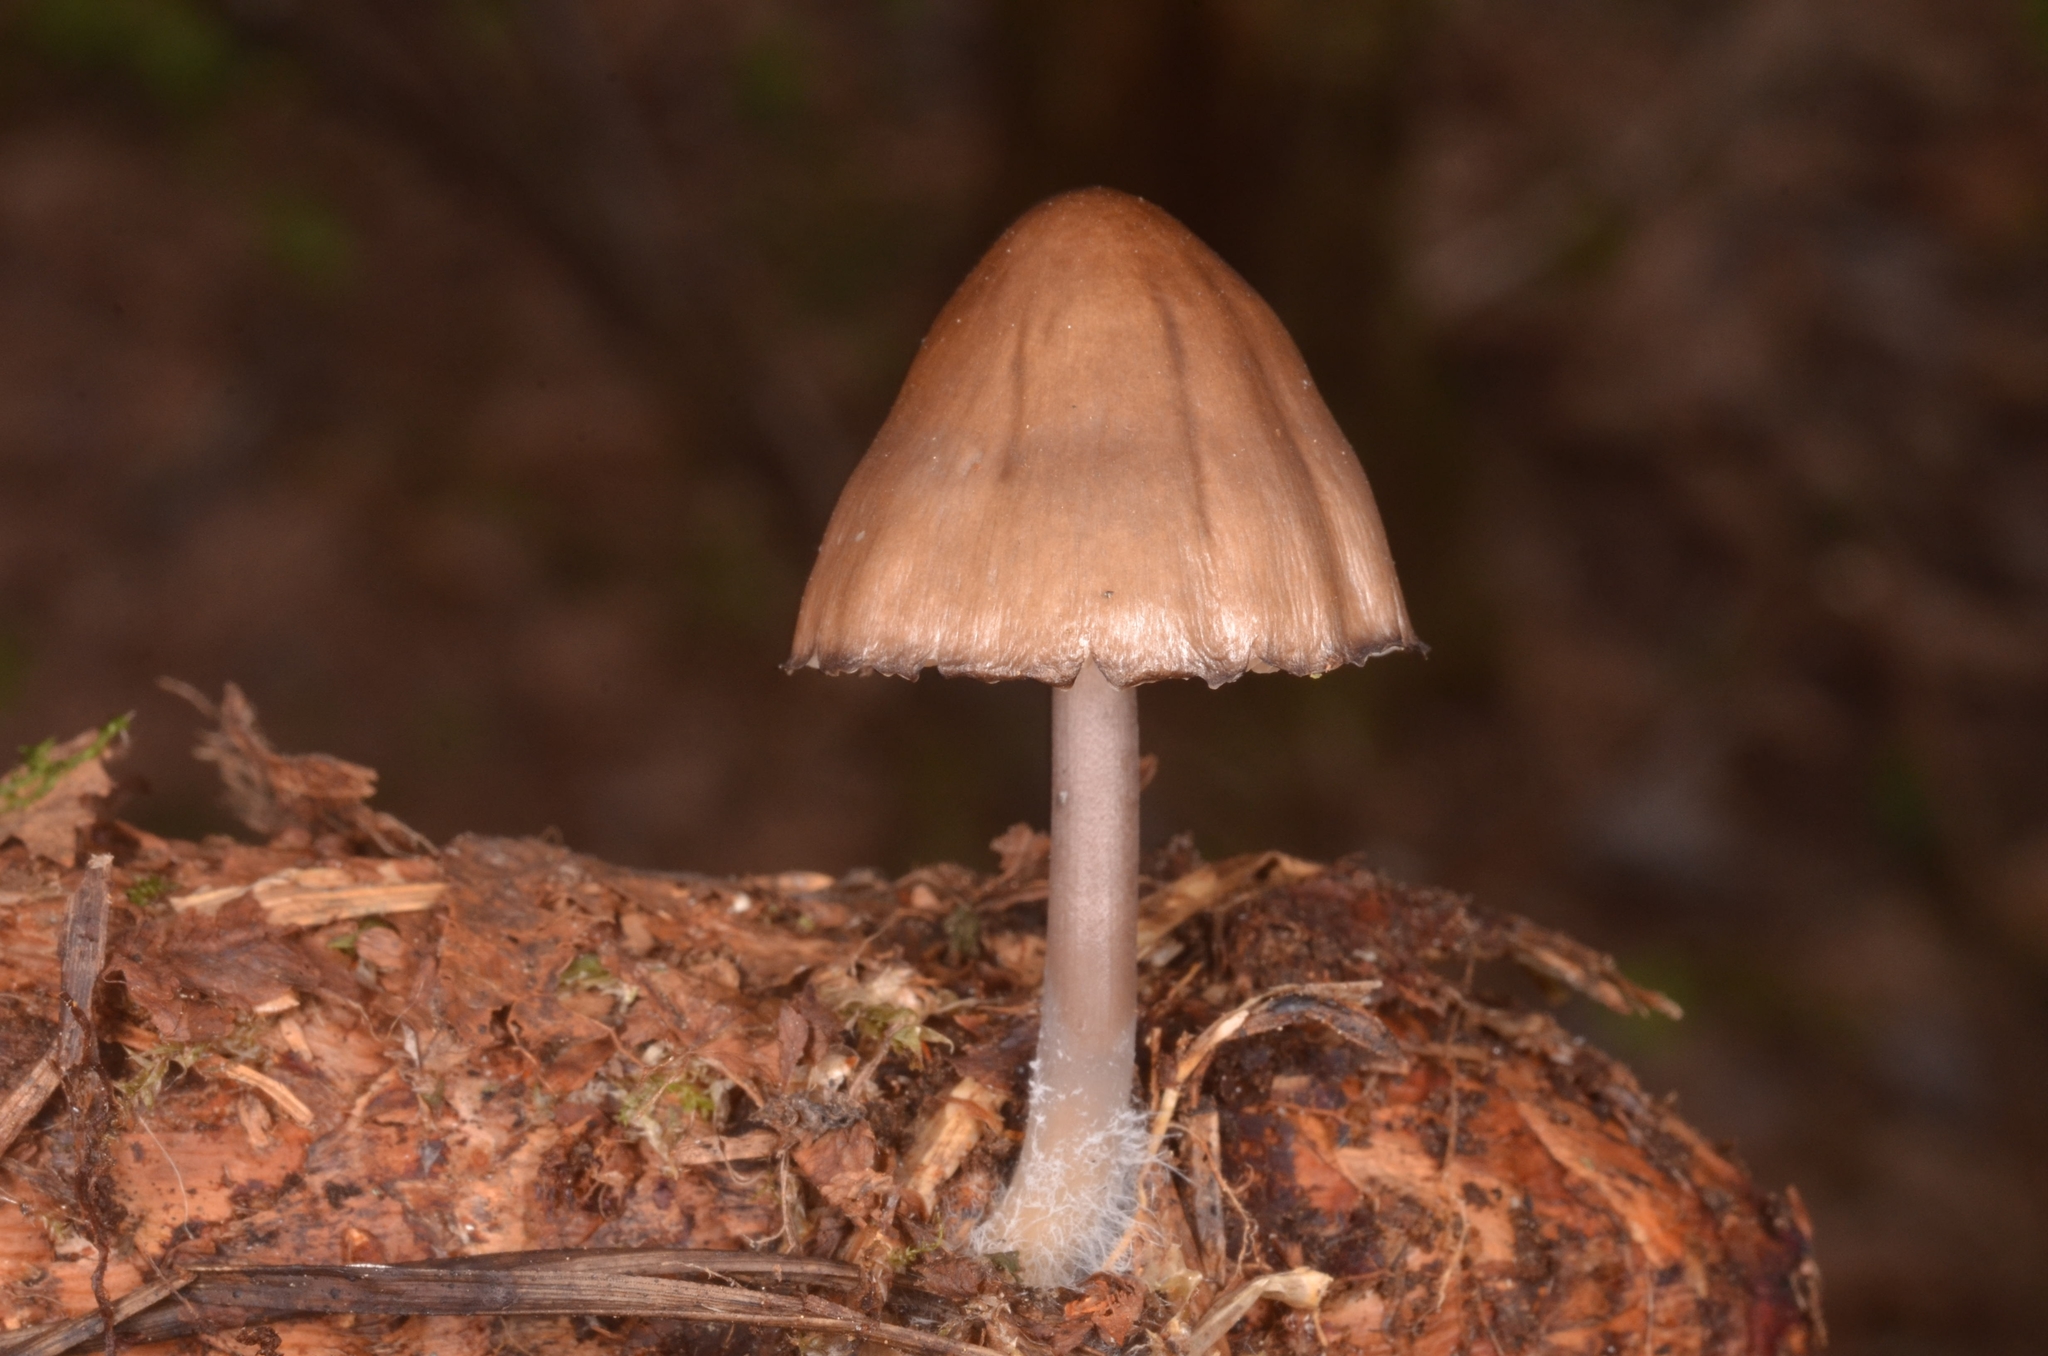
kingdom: Fungi
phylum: Basidiomycota
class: Agaricomycetes
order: Agaricales
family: Mycenaceae
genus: Mycena
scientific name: Mycena plumipes
